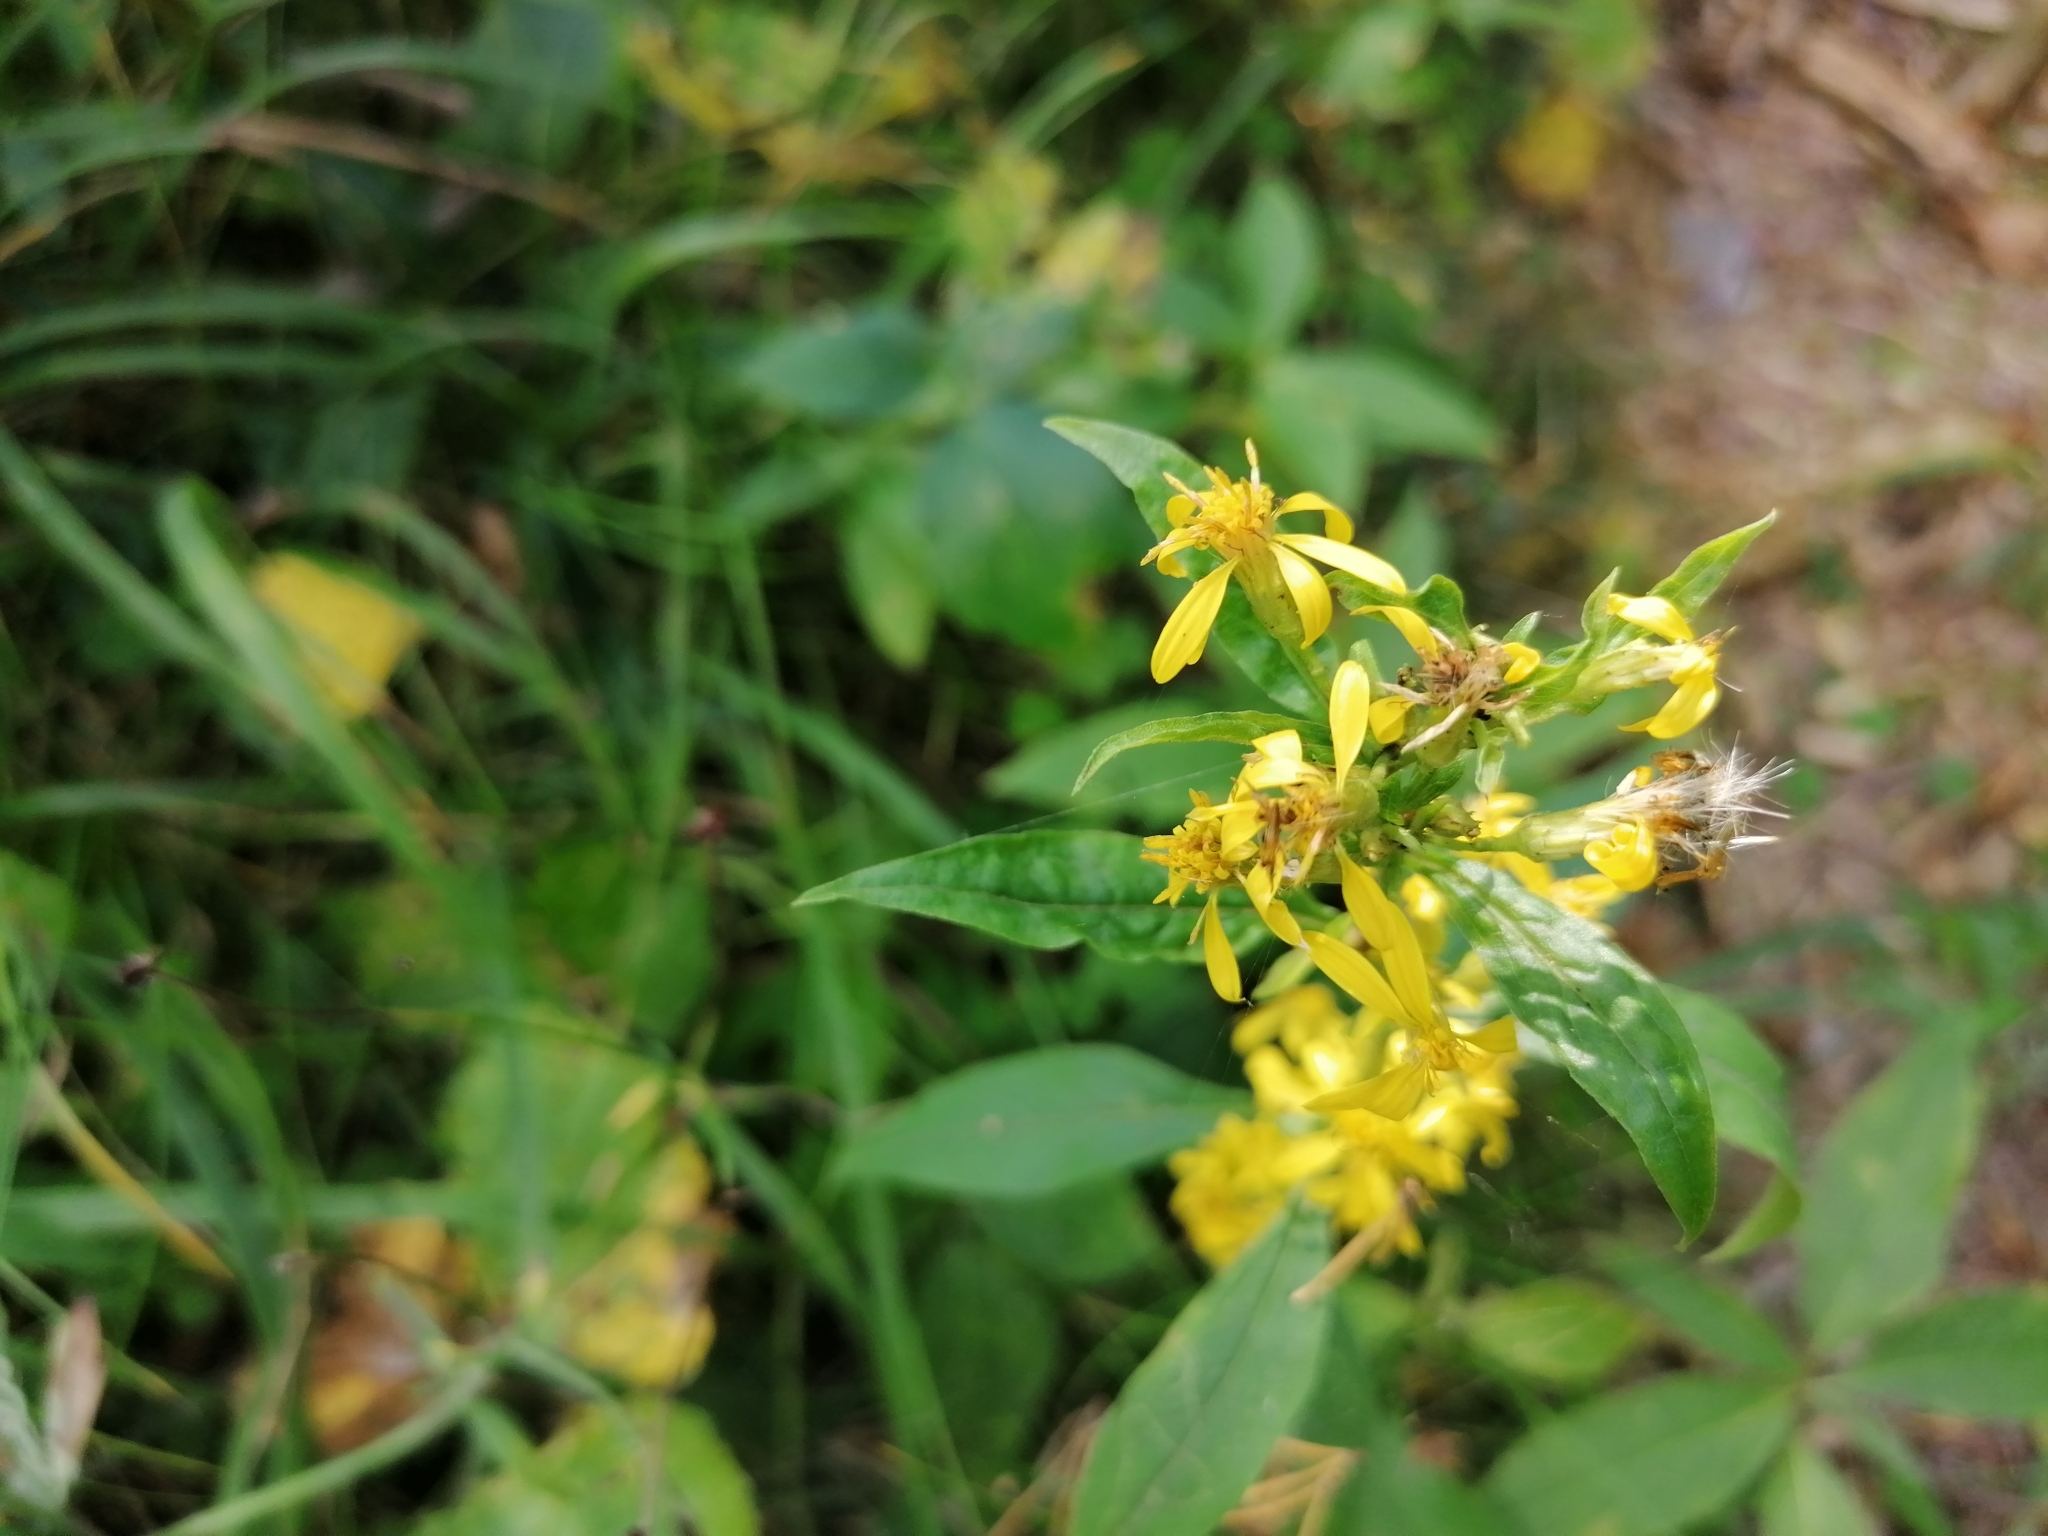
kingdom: Plantae
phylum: Tracheophyta
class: Magnoliopsida
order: Asterales
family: Asteraceae
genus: Solidago
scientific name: Solidago virgaurea
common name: Goldenrod
